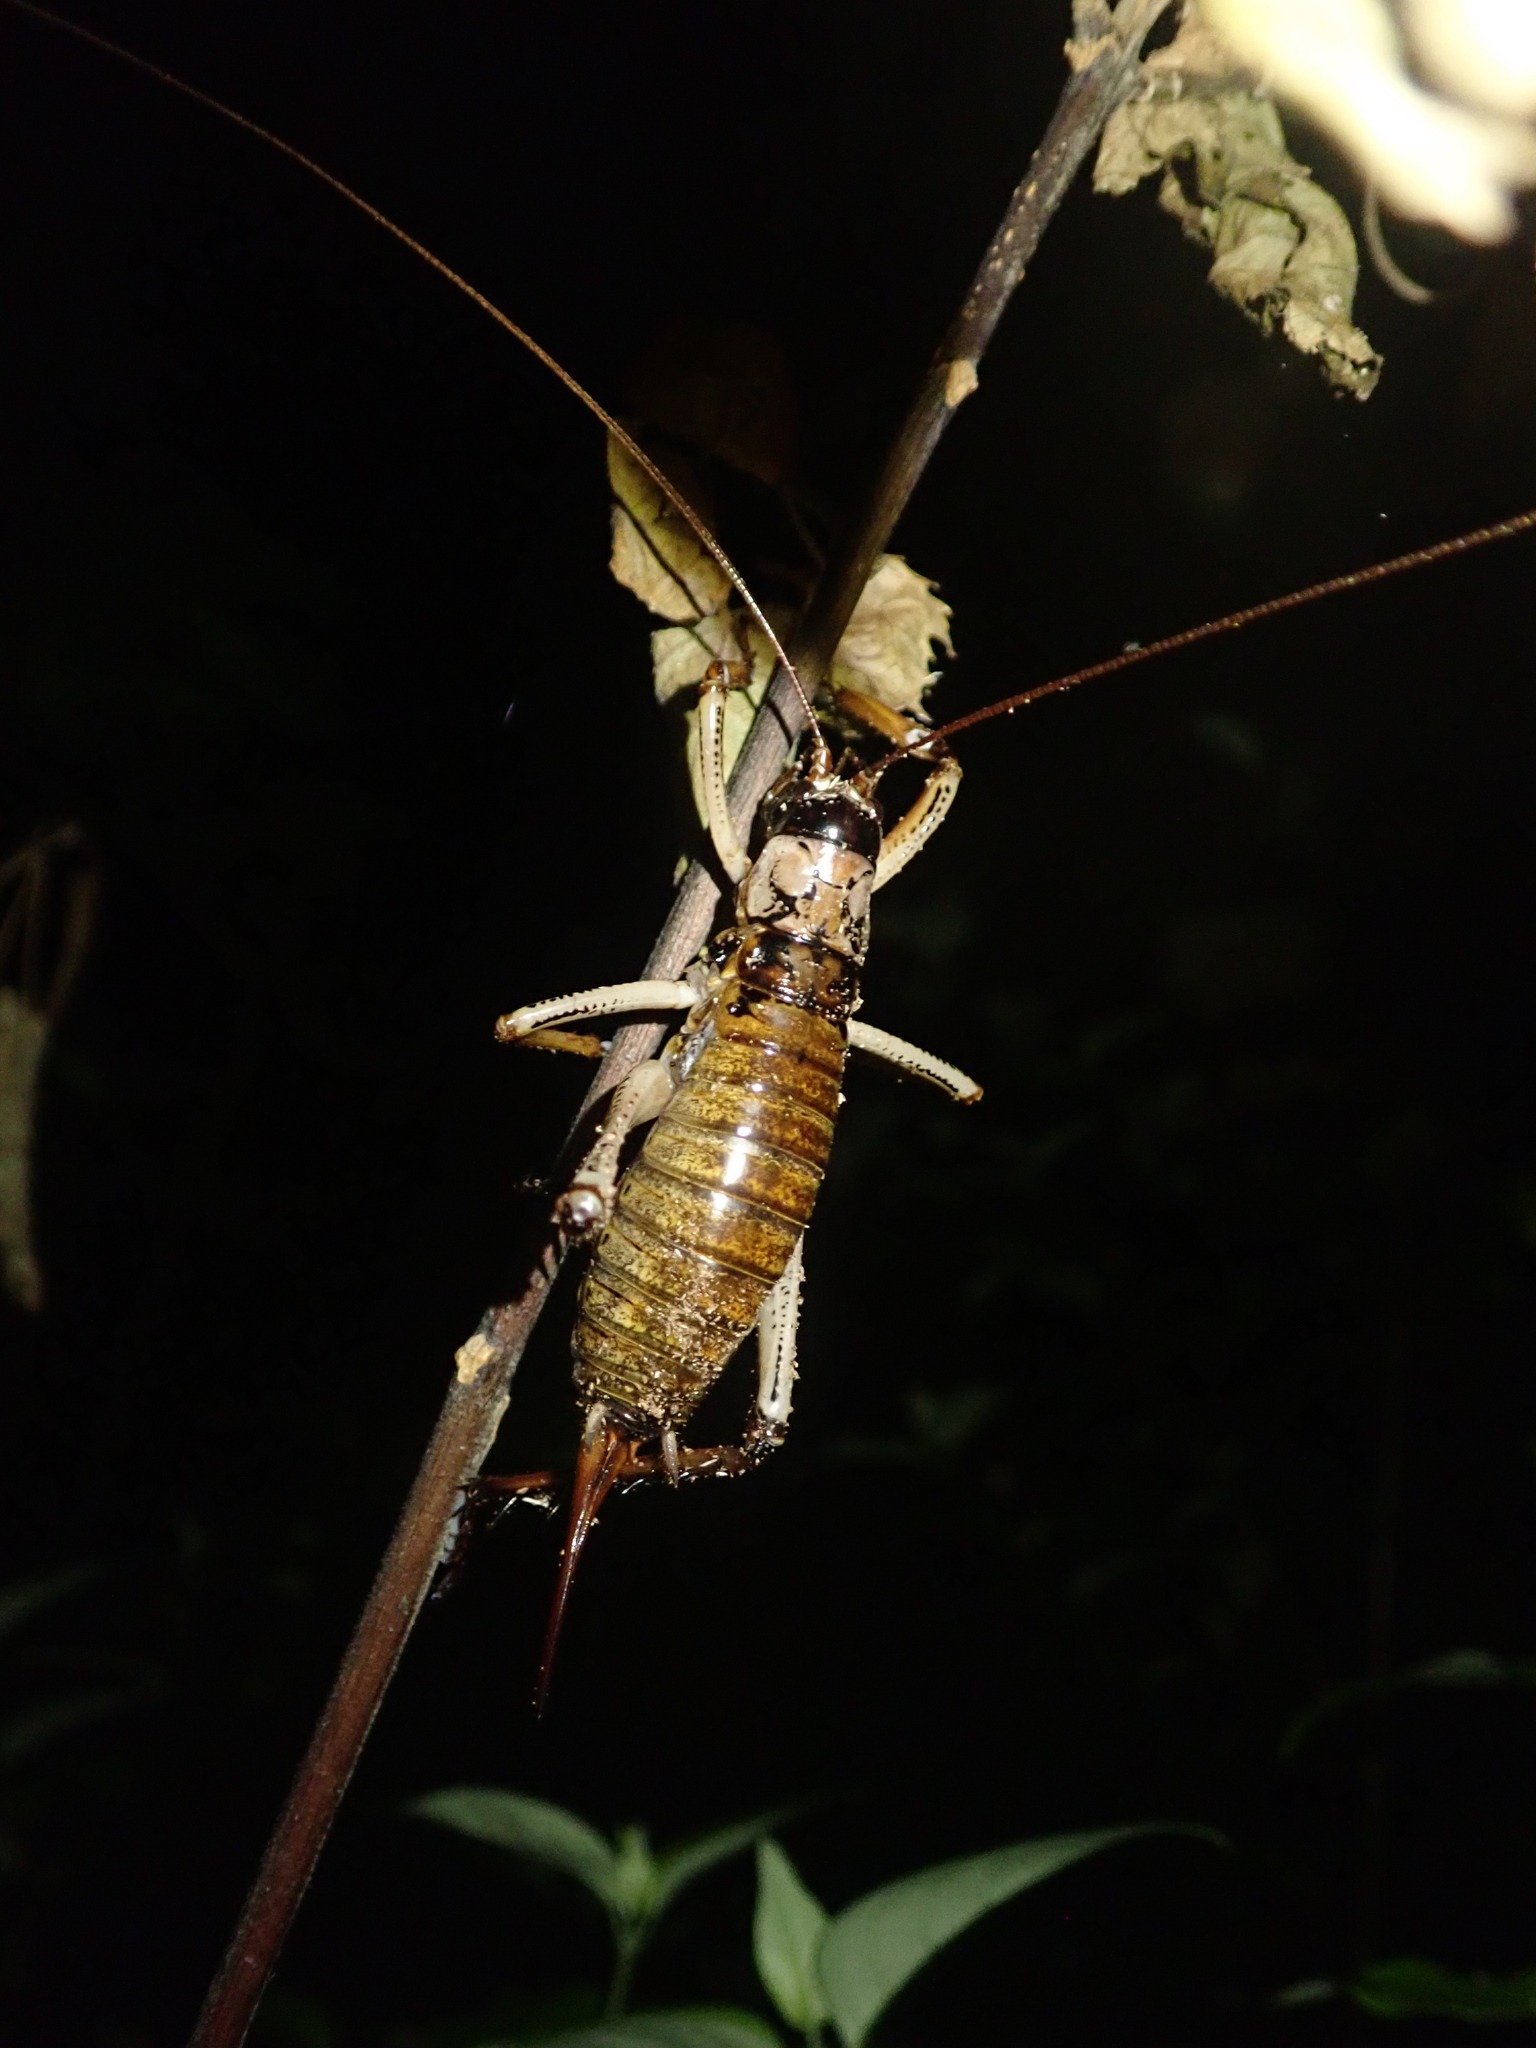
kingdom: Animalia
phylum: Arthropoda
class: Insecta
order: Orthoptera
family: Anostostomatidae
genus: Hemideina
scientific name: Hemideina thoracica
